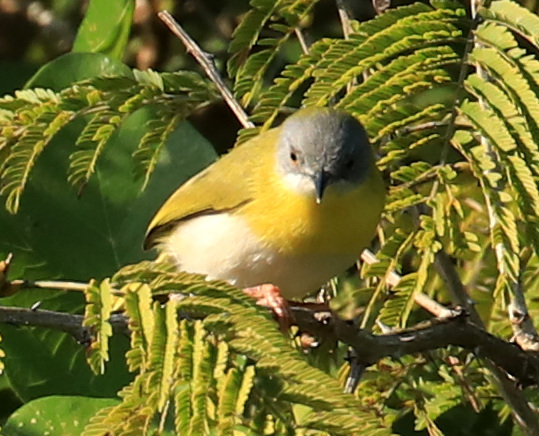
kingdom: Animalia
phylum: Chordata
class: Aves
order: Passeriformes
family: Cisticolidae
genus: Apalis
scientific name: Apalis flavida
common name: Yellow-breasted apalis
